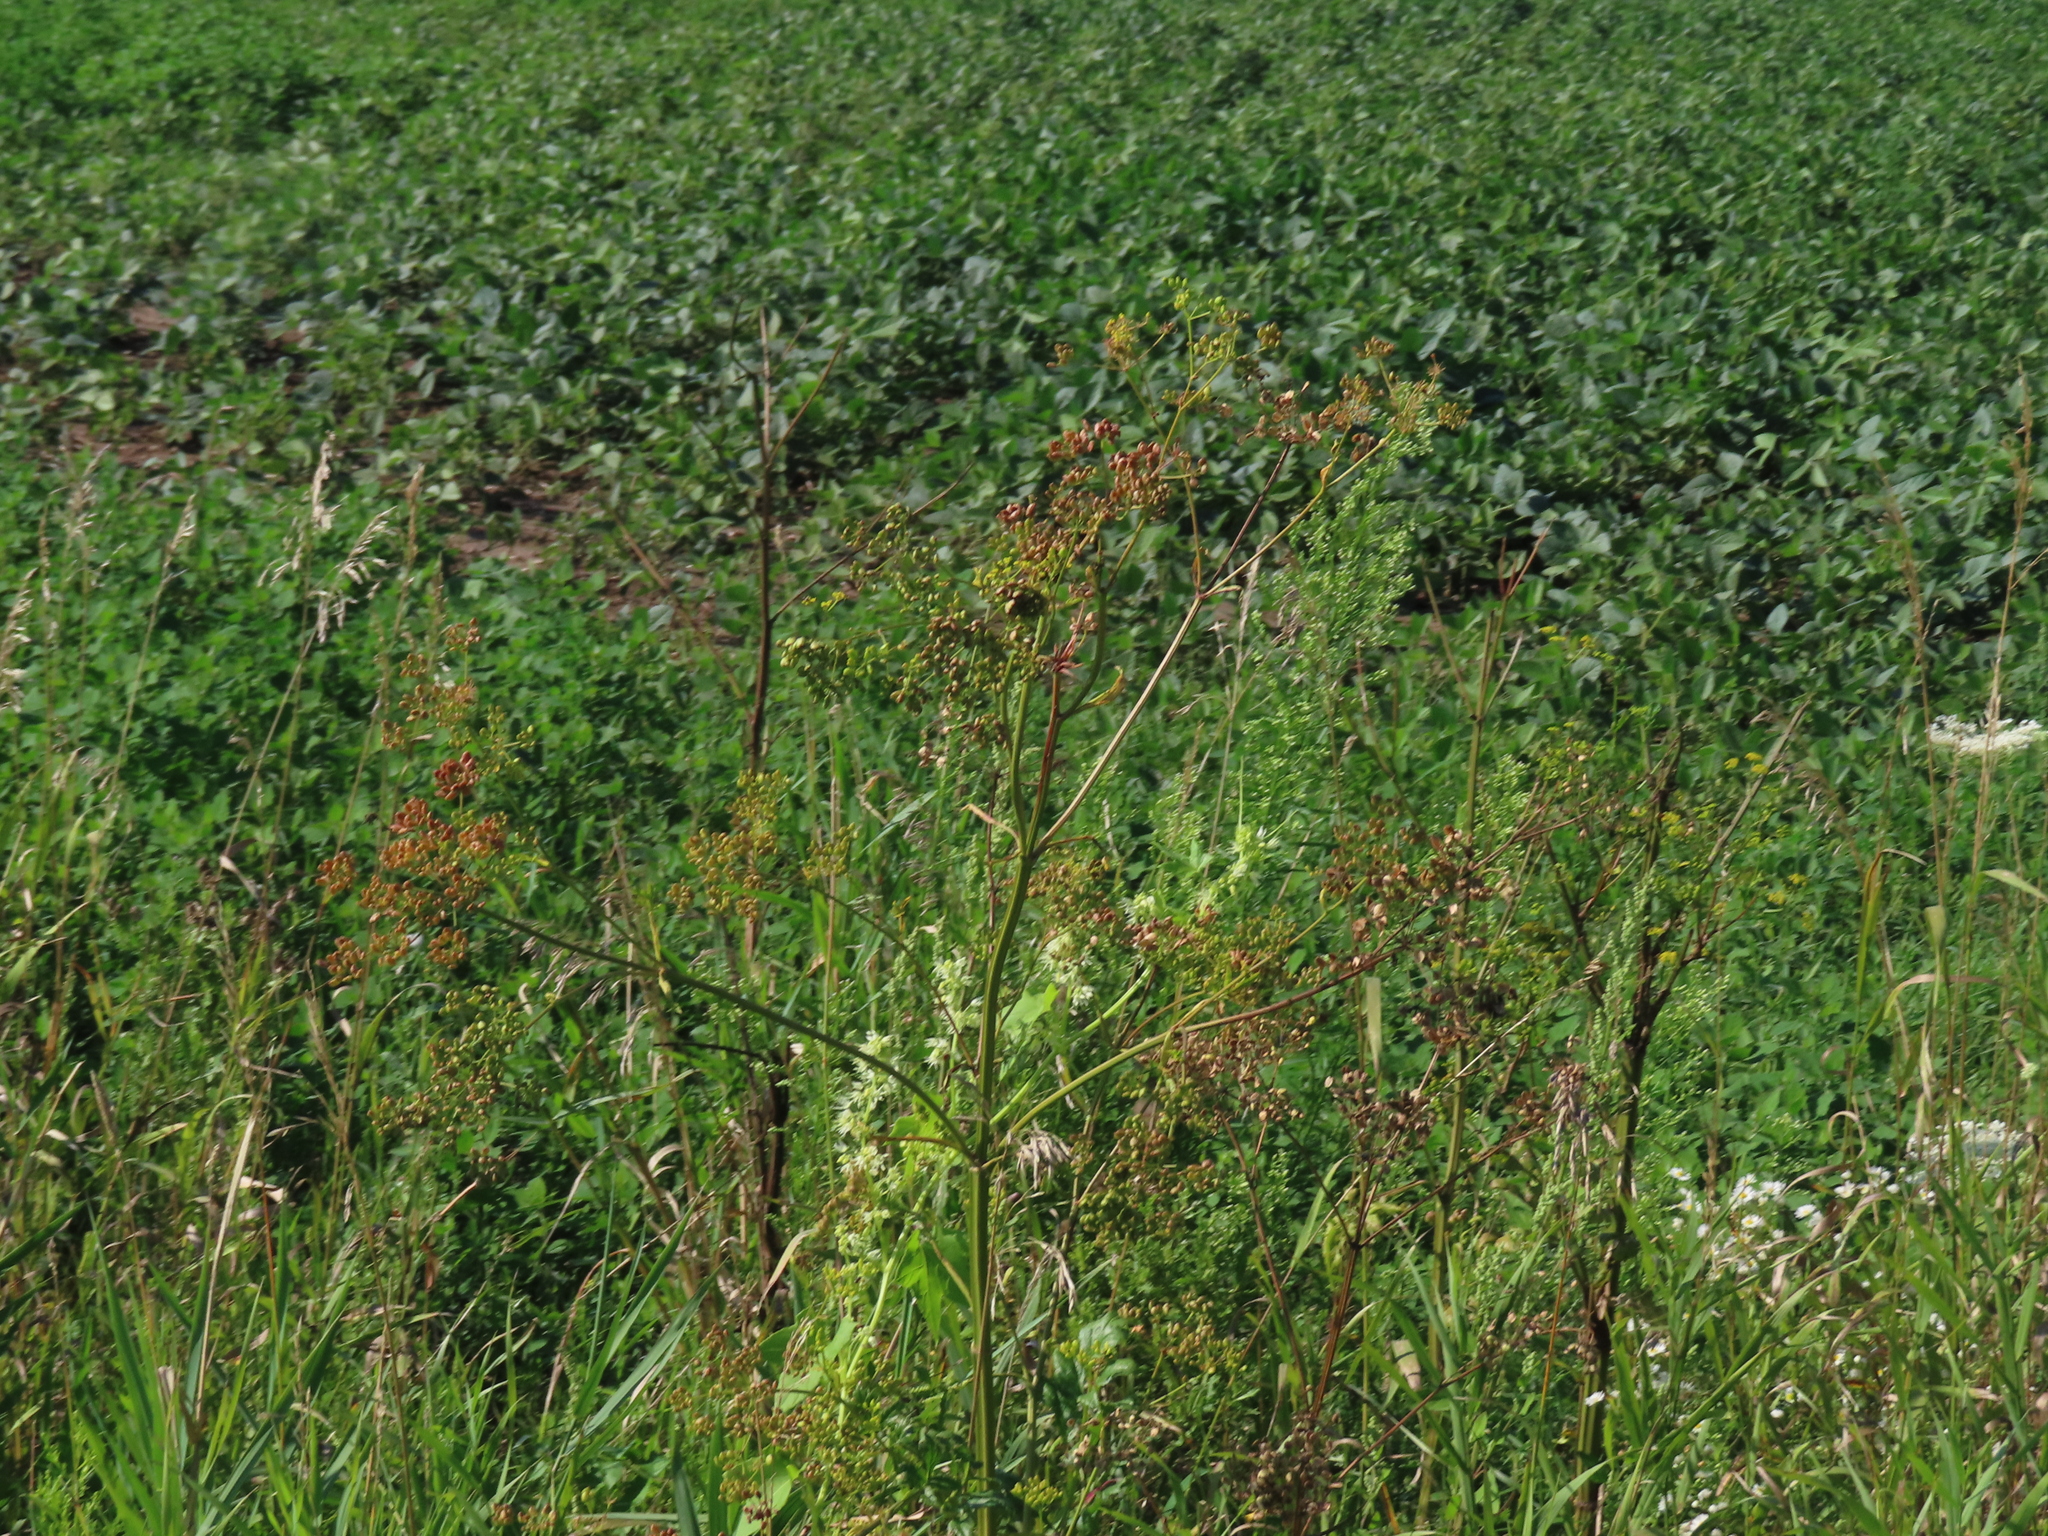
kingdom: Plantae
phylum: Tracheophyta
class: Magnoliopsida
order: Apiales
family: Apiaceae
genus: Pastinaca
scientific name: Pastinaca sativa
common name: Wild parsnip
